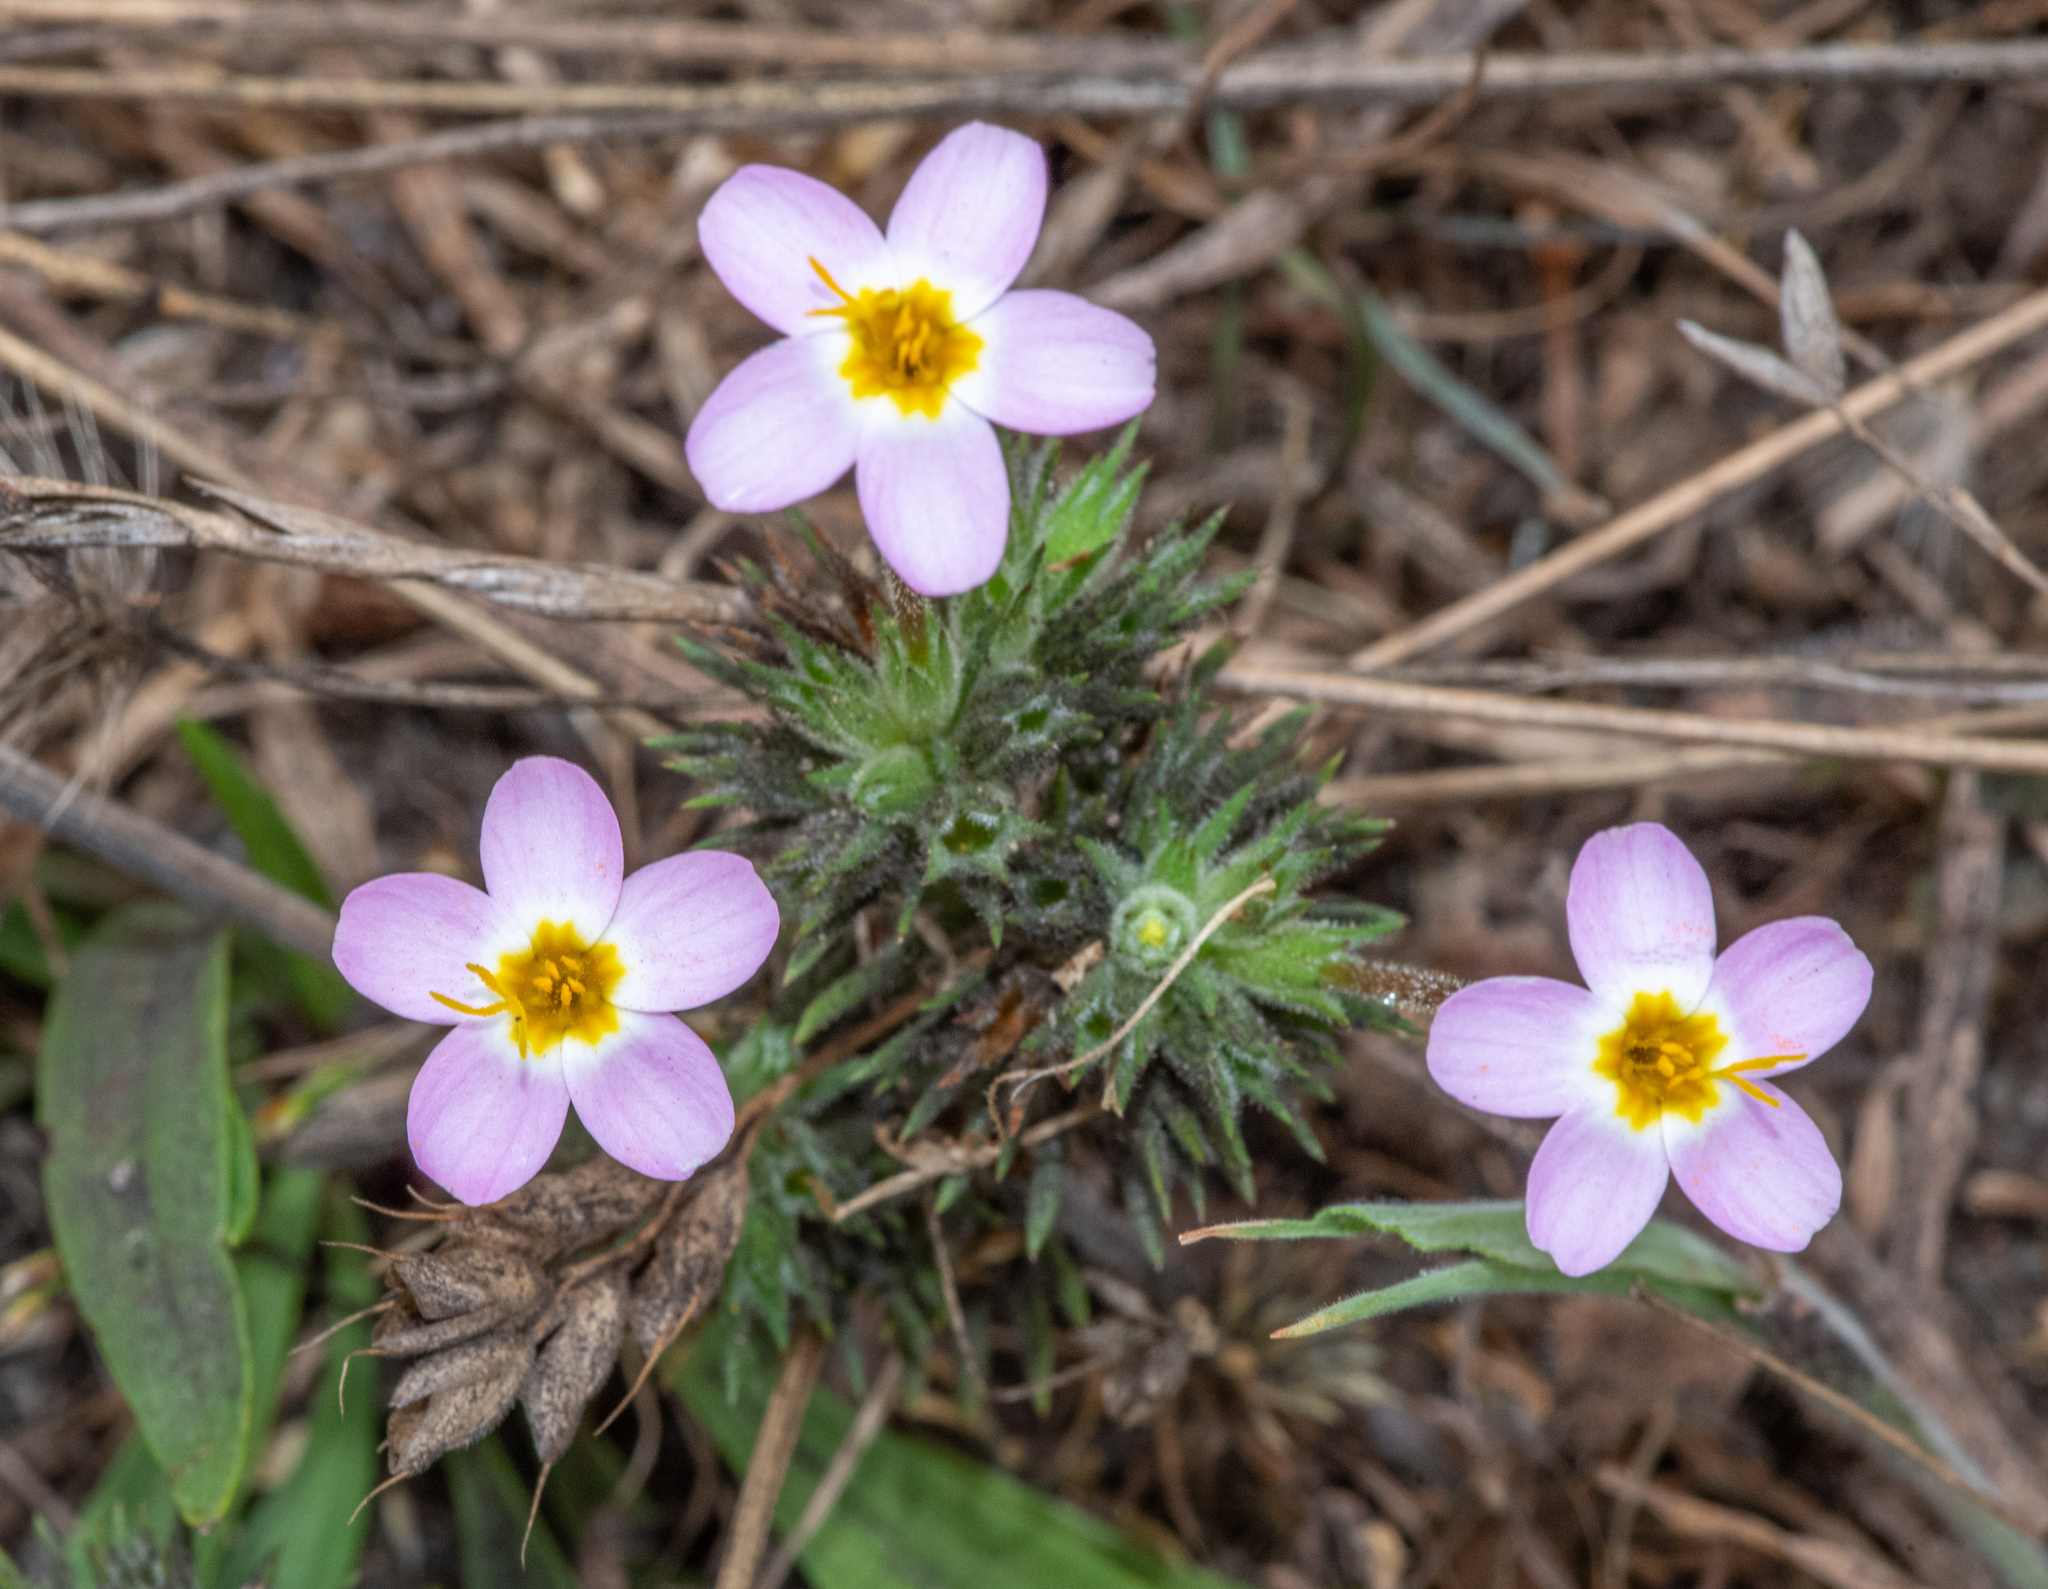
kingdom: Plantae
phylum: Tracheophyta
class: Magnoliopsida
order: Ericales
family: Polemoniaceae
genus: Leptosiphon
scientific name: Leptosiphon parviflorus
